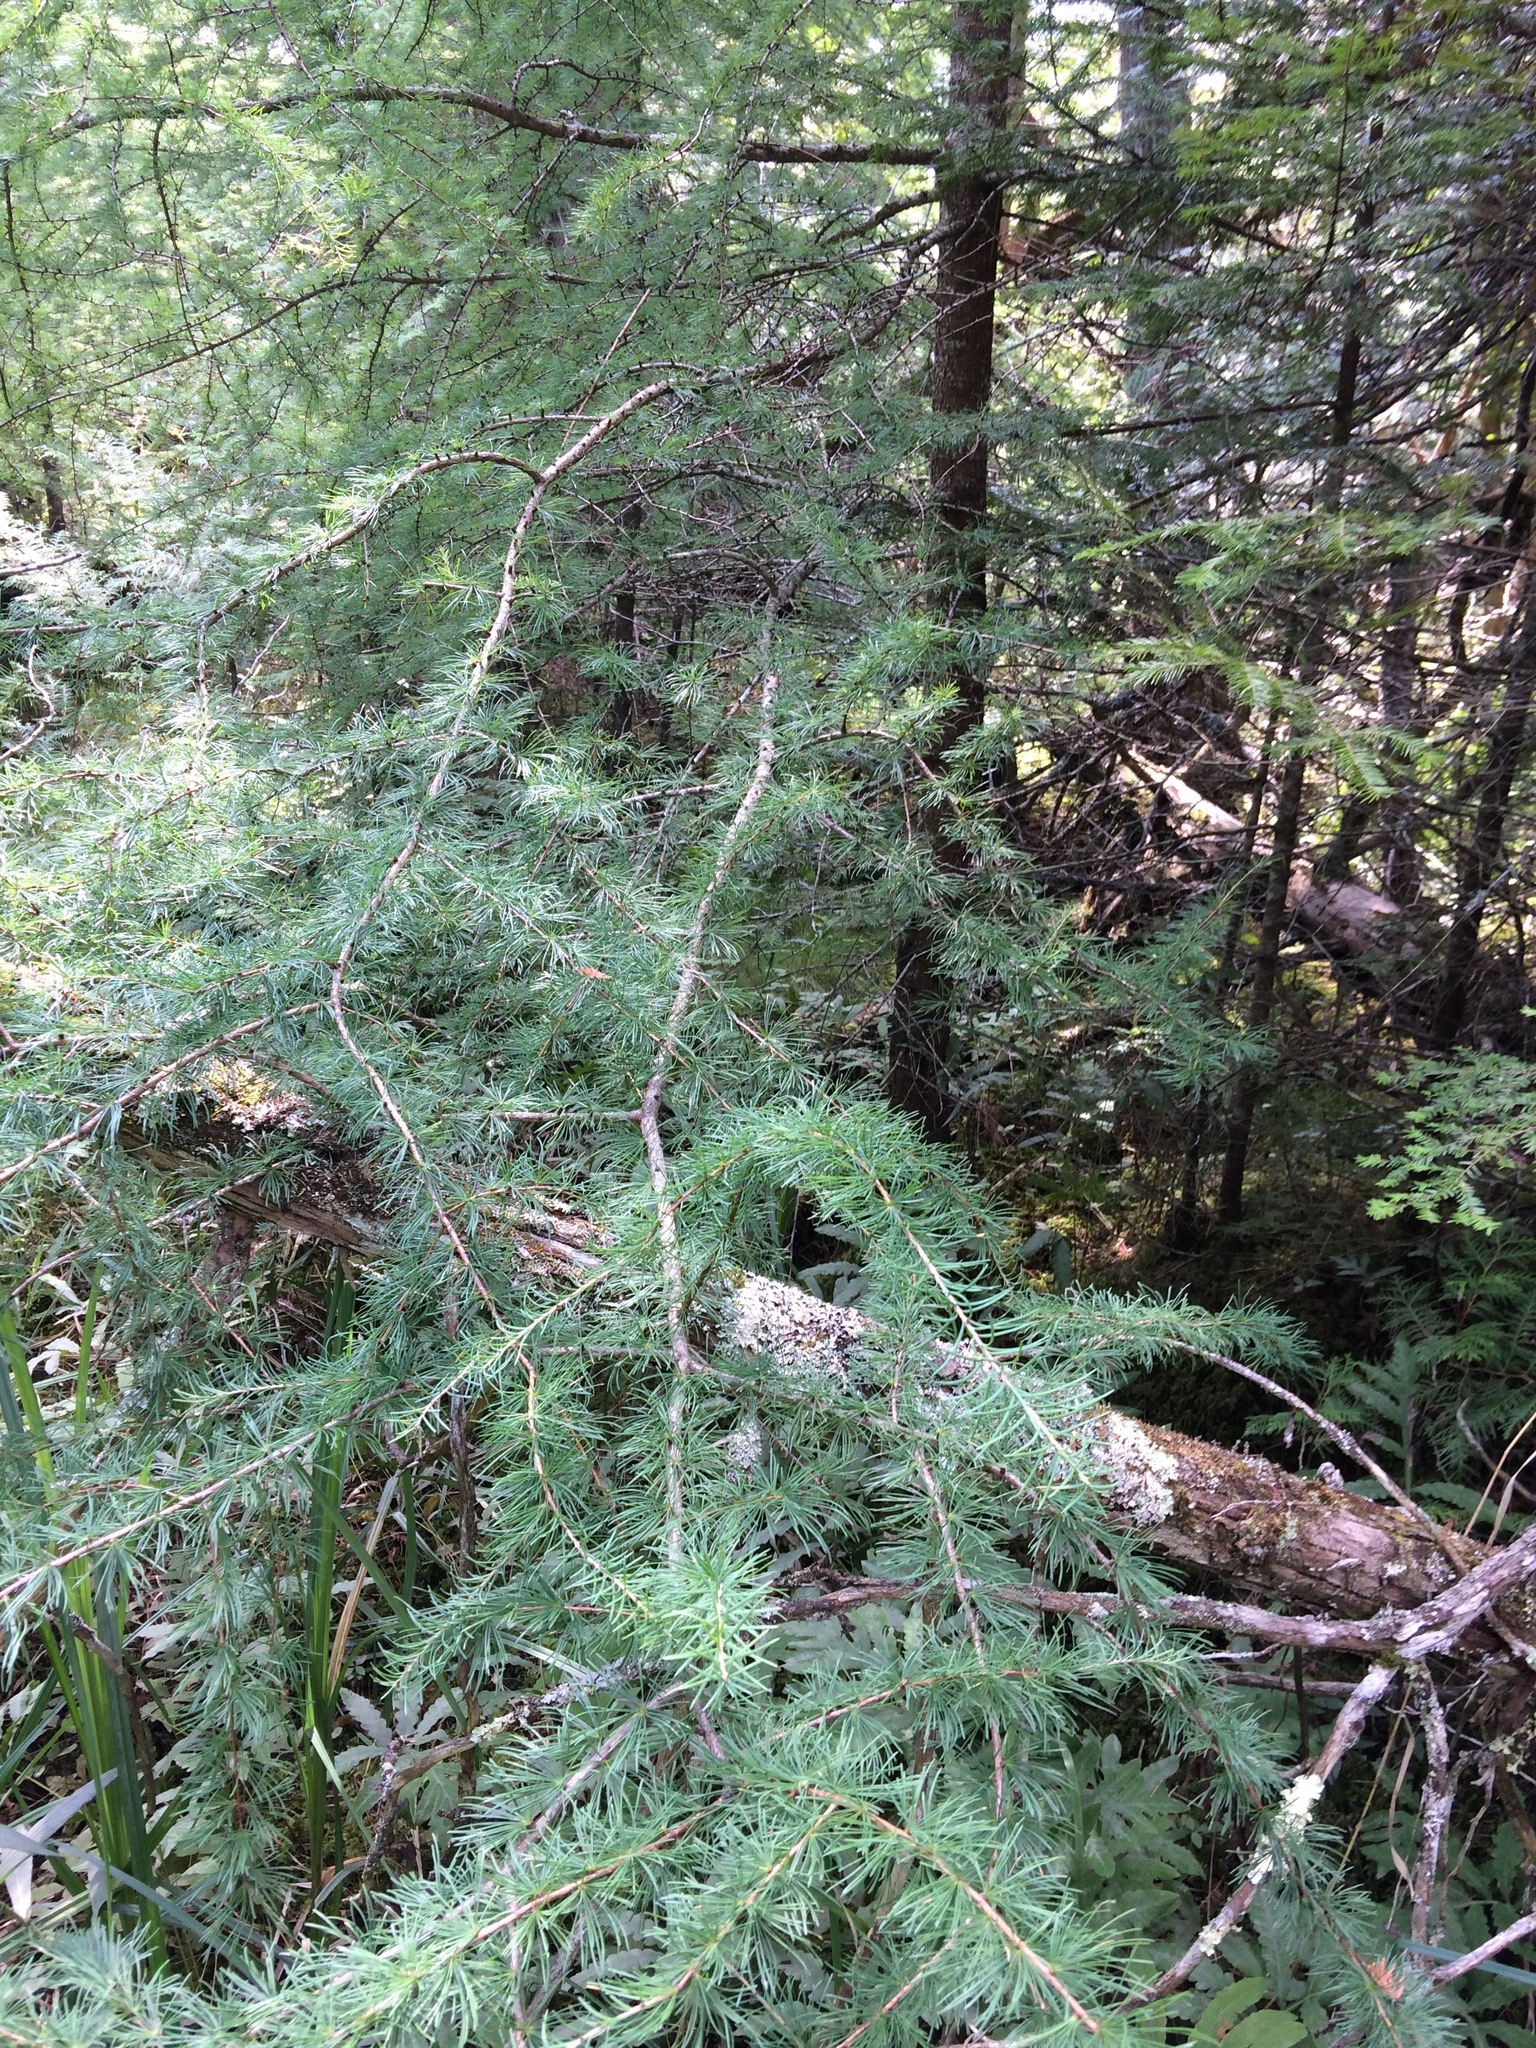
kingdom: Plantae
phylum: Tracheophyta
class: Pinopsida
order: Pinales
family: Pinaceae
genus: Larix
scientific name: Larix laricina
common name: American larch
